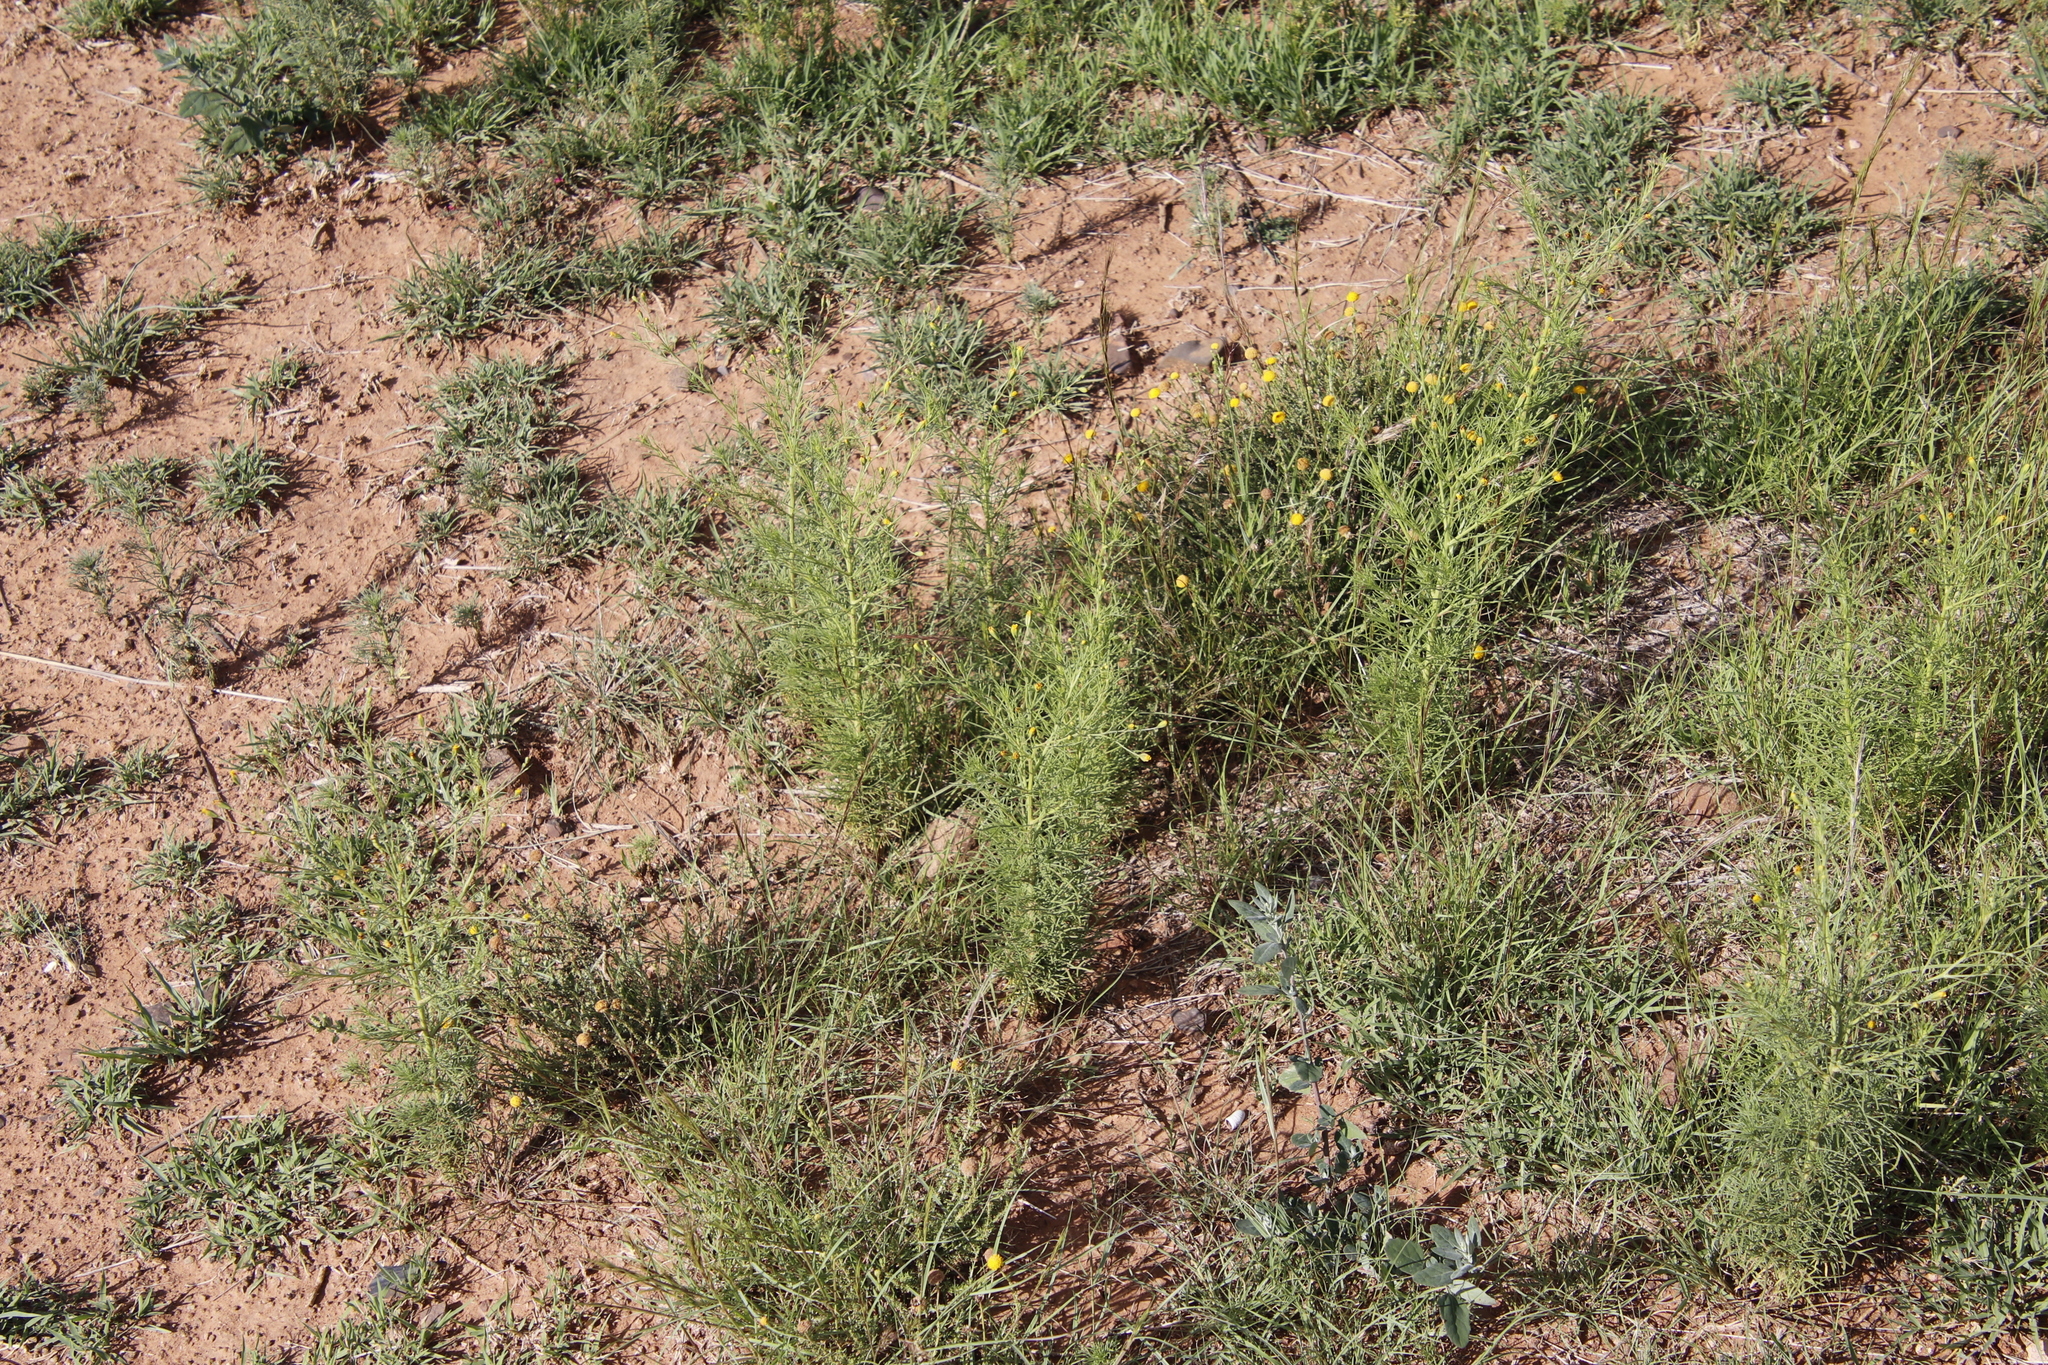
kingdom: Plantae
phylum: Tracheophyta
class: Magnoliopsida
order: Asterales
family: Asteraceae
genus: Schkuhria
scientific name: Schkuhria pinnata
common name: Dwarf marigold
